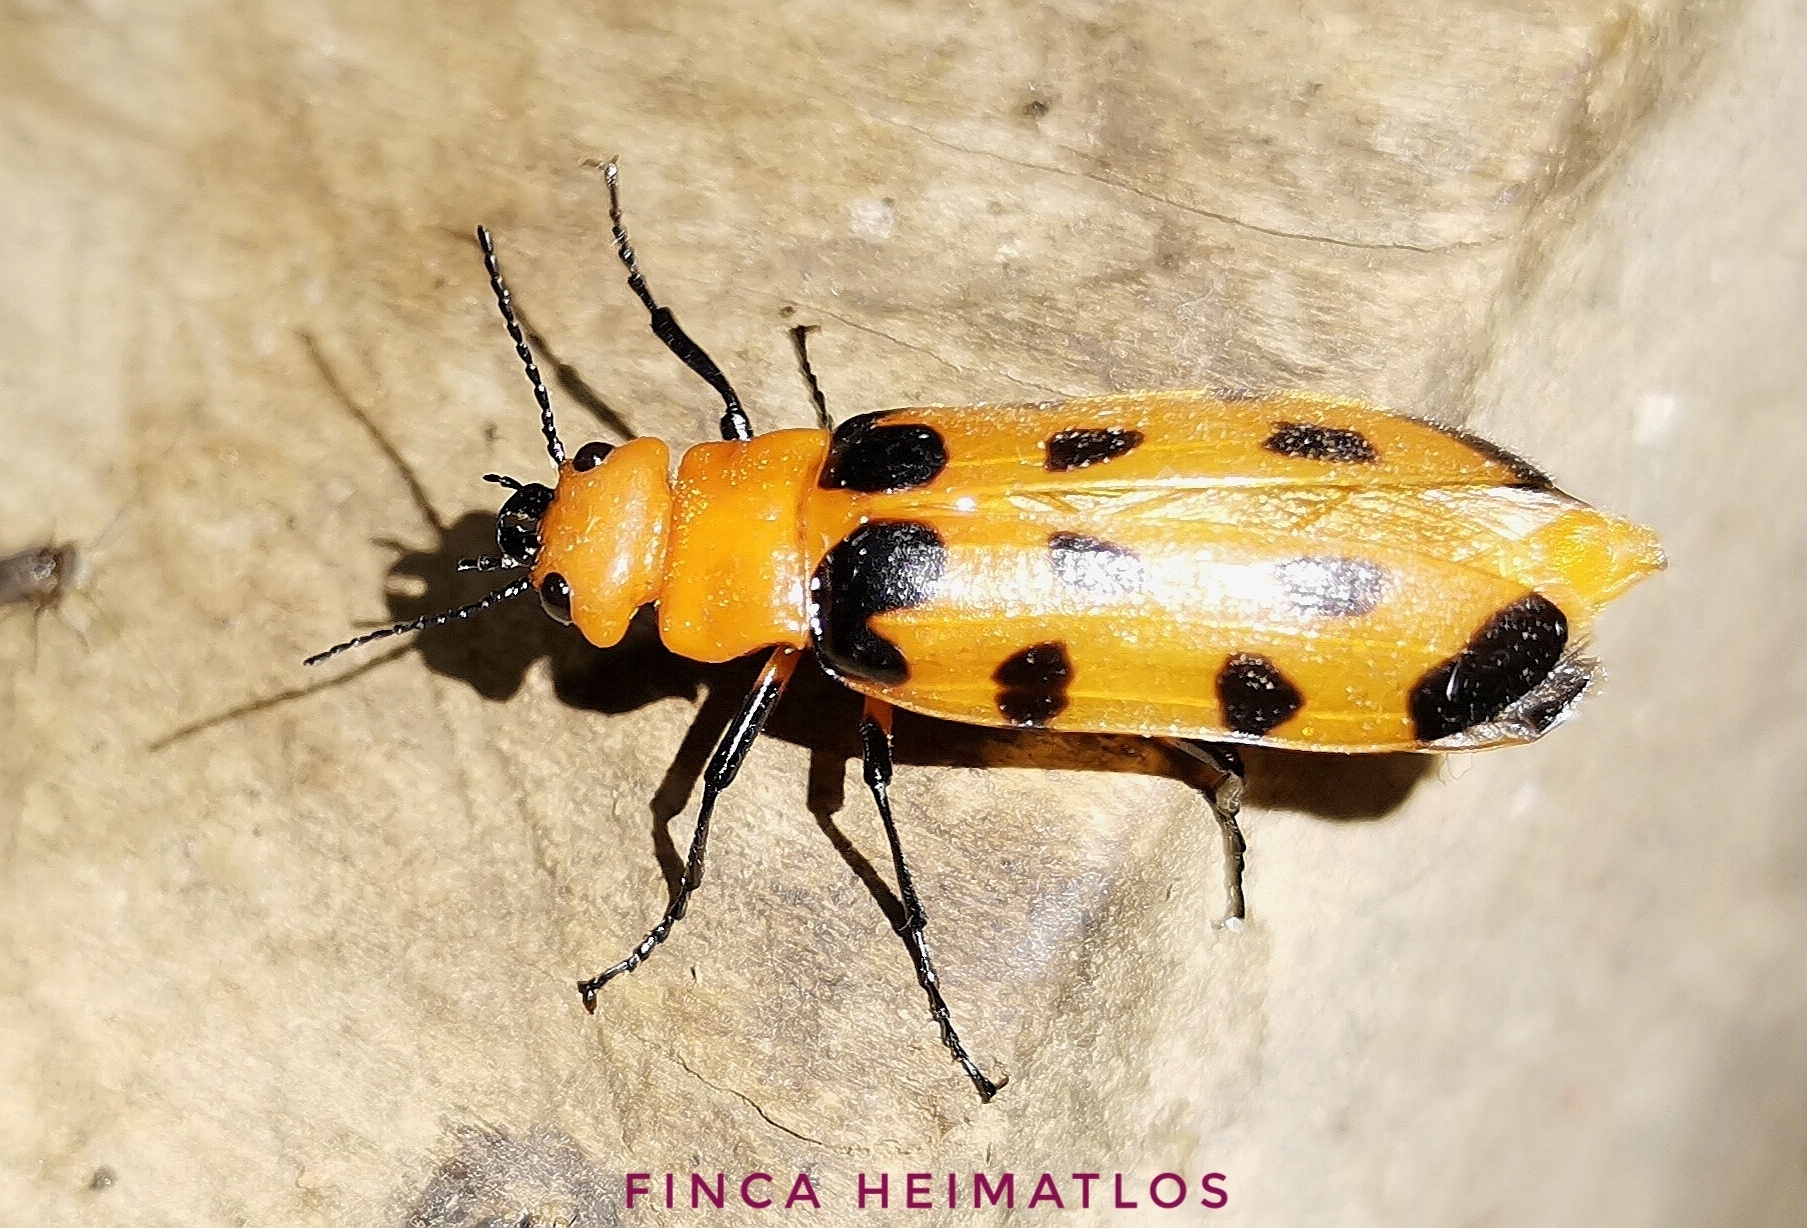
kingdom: Animalia
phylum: Arthropoda
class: Insecta
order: Coleoptera
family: Meloidae
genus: Cissites
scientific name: Cissites maculata
